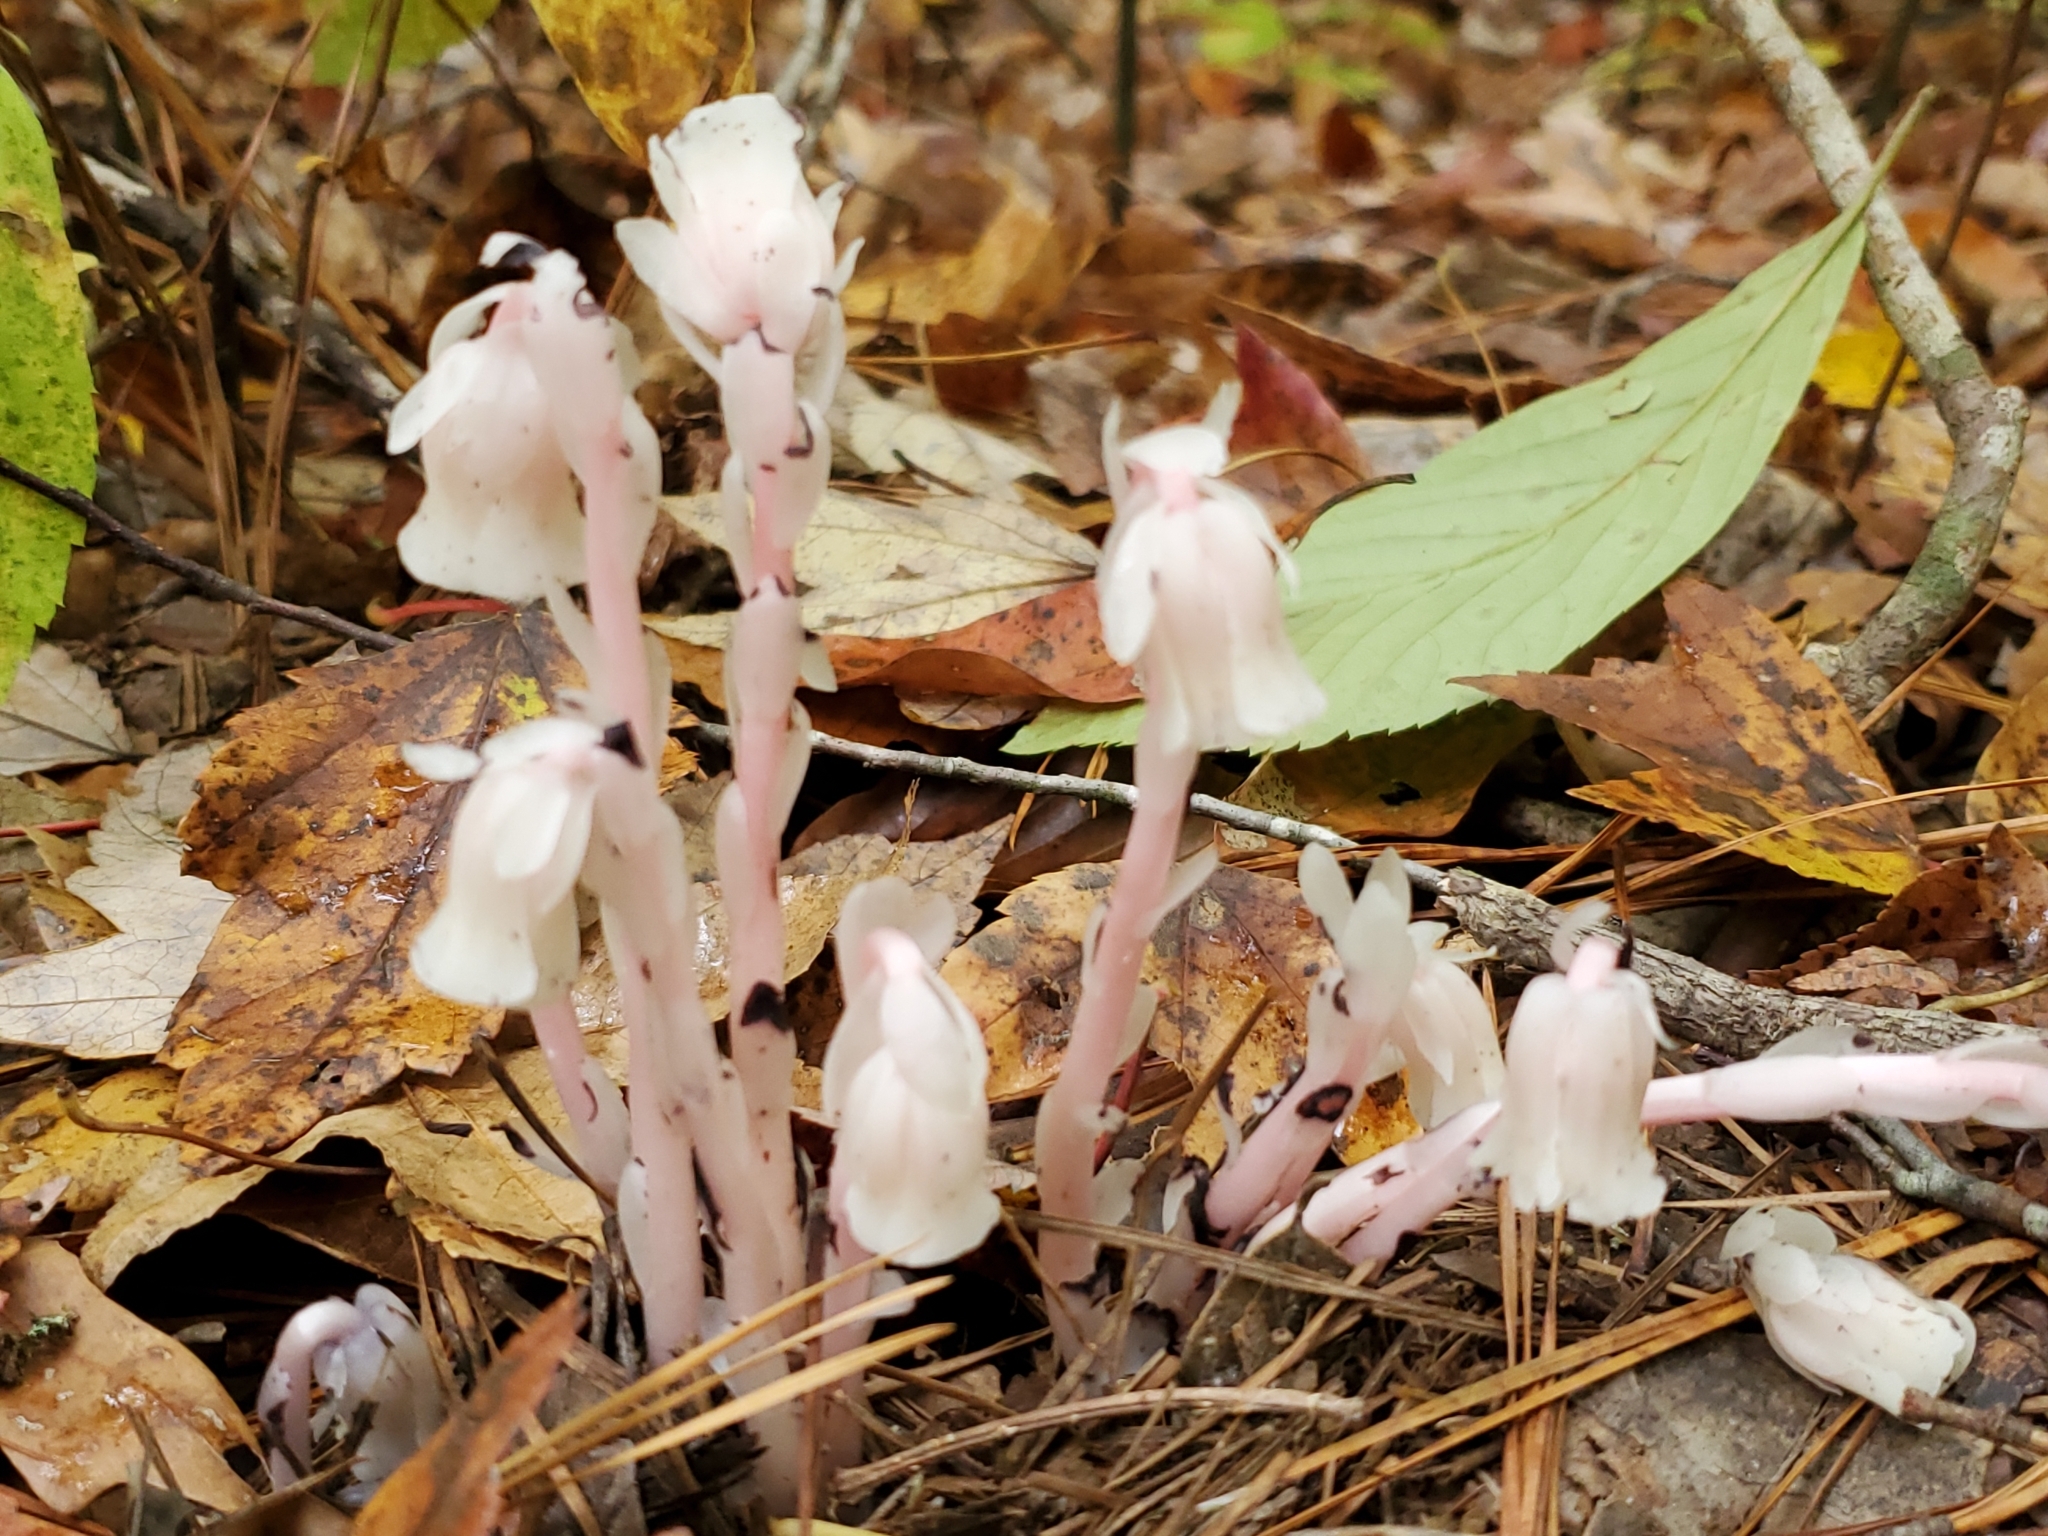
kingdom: Plantae
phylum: Tracheophyta
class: Magnoliopsida
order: Ericales
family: Ericaceae
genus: Monotropa
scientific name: Monotropa uniflora
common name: Convulsion root
